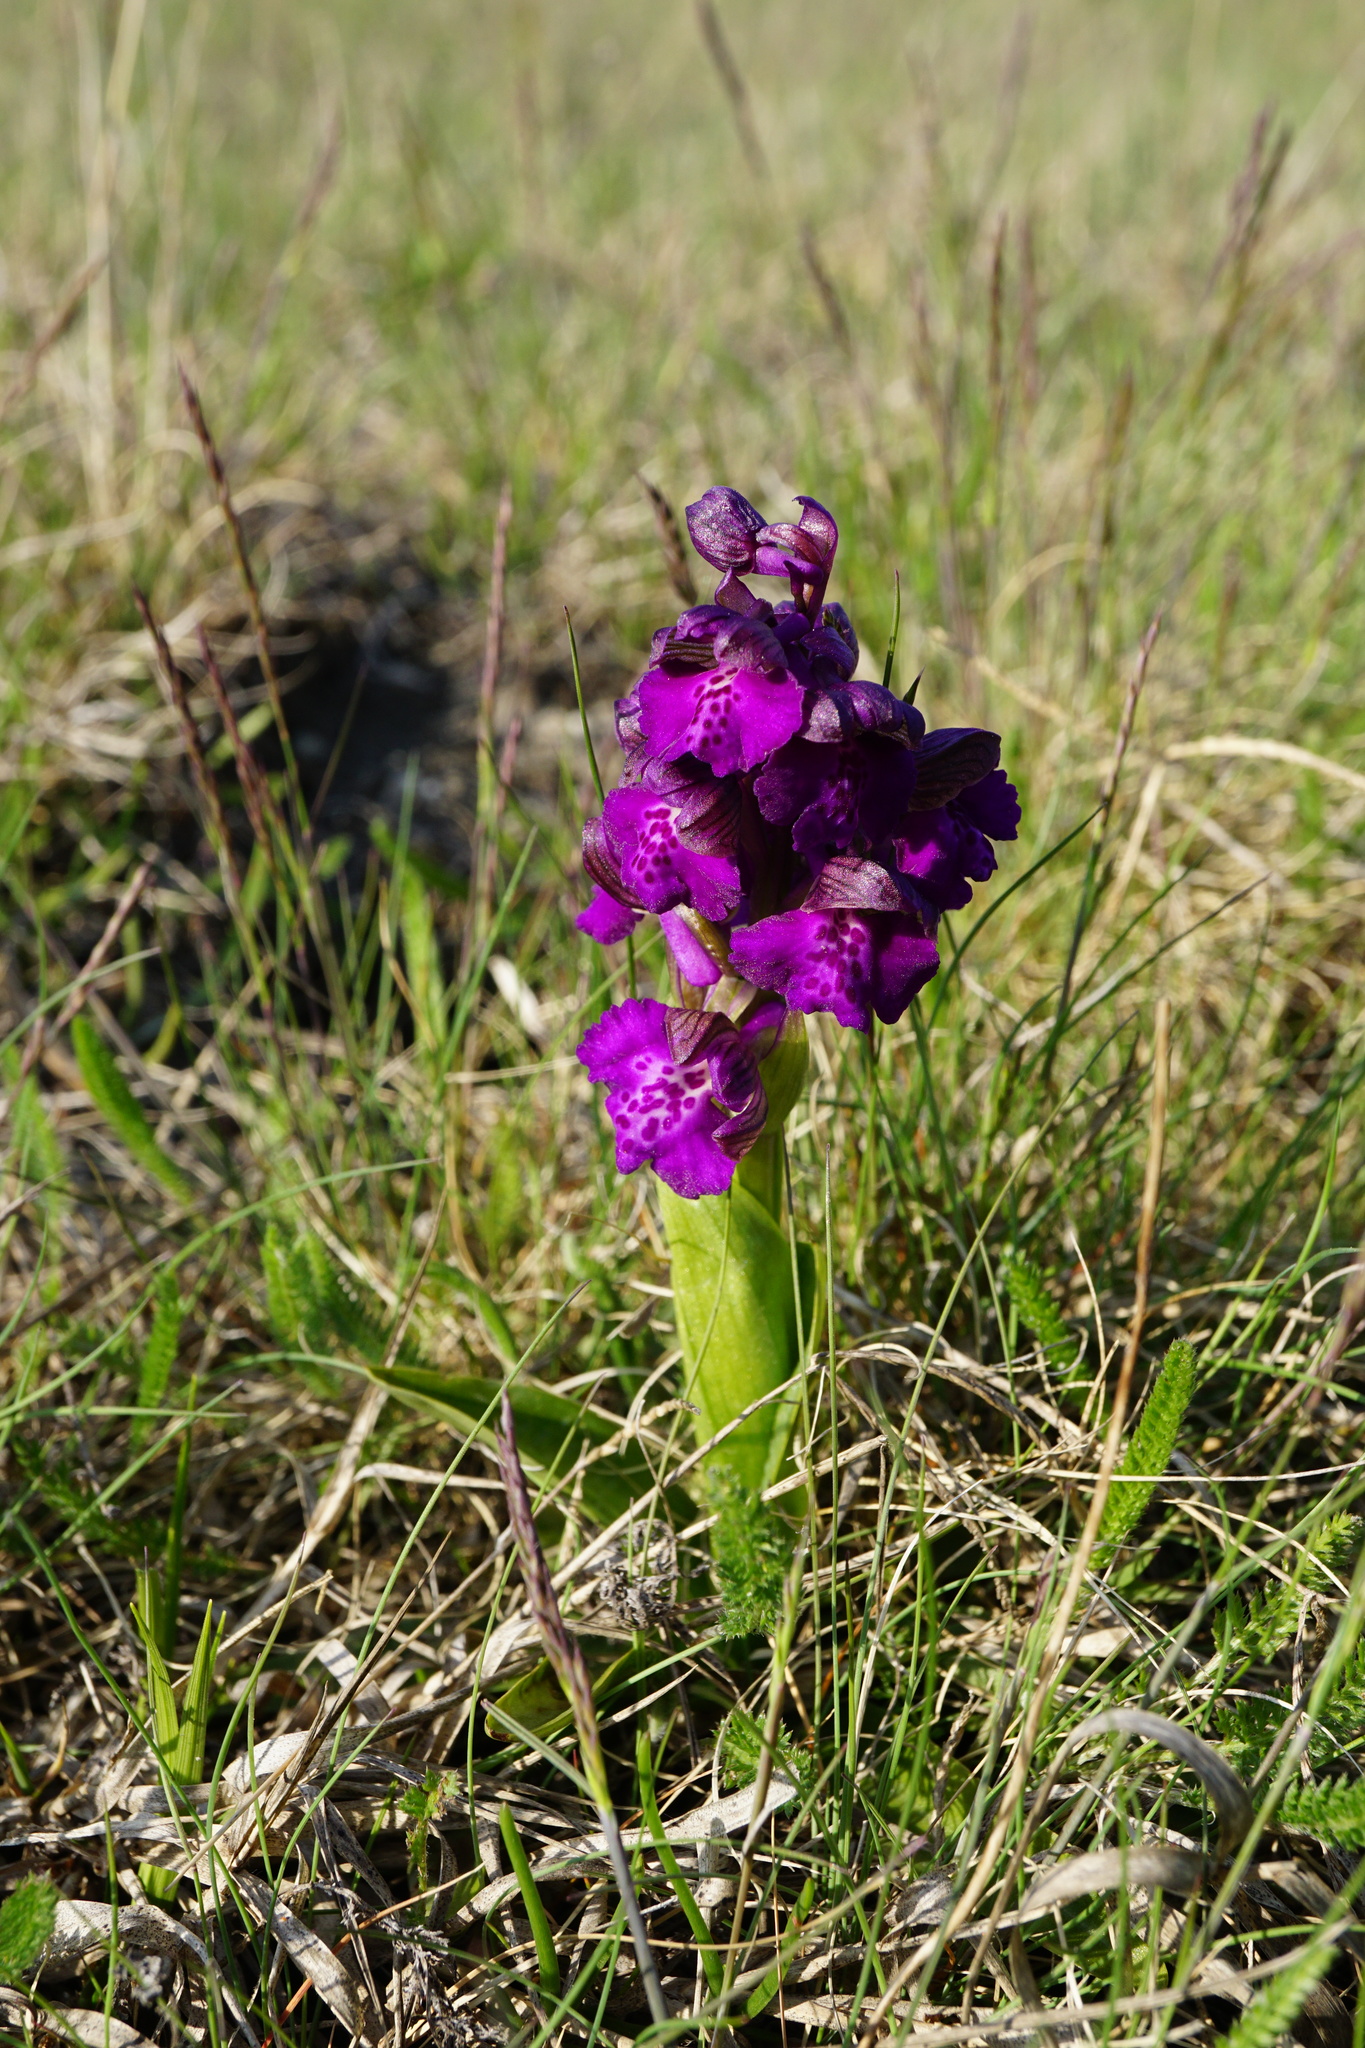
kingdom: Plantae
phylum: Tracheophyta
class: Liliopsida
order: Asparagales
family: Orchidaceae
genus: Anacamptis
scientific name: Anacamptis morio
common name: Green-winged orchid
